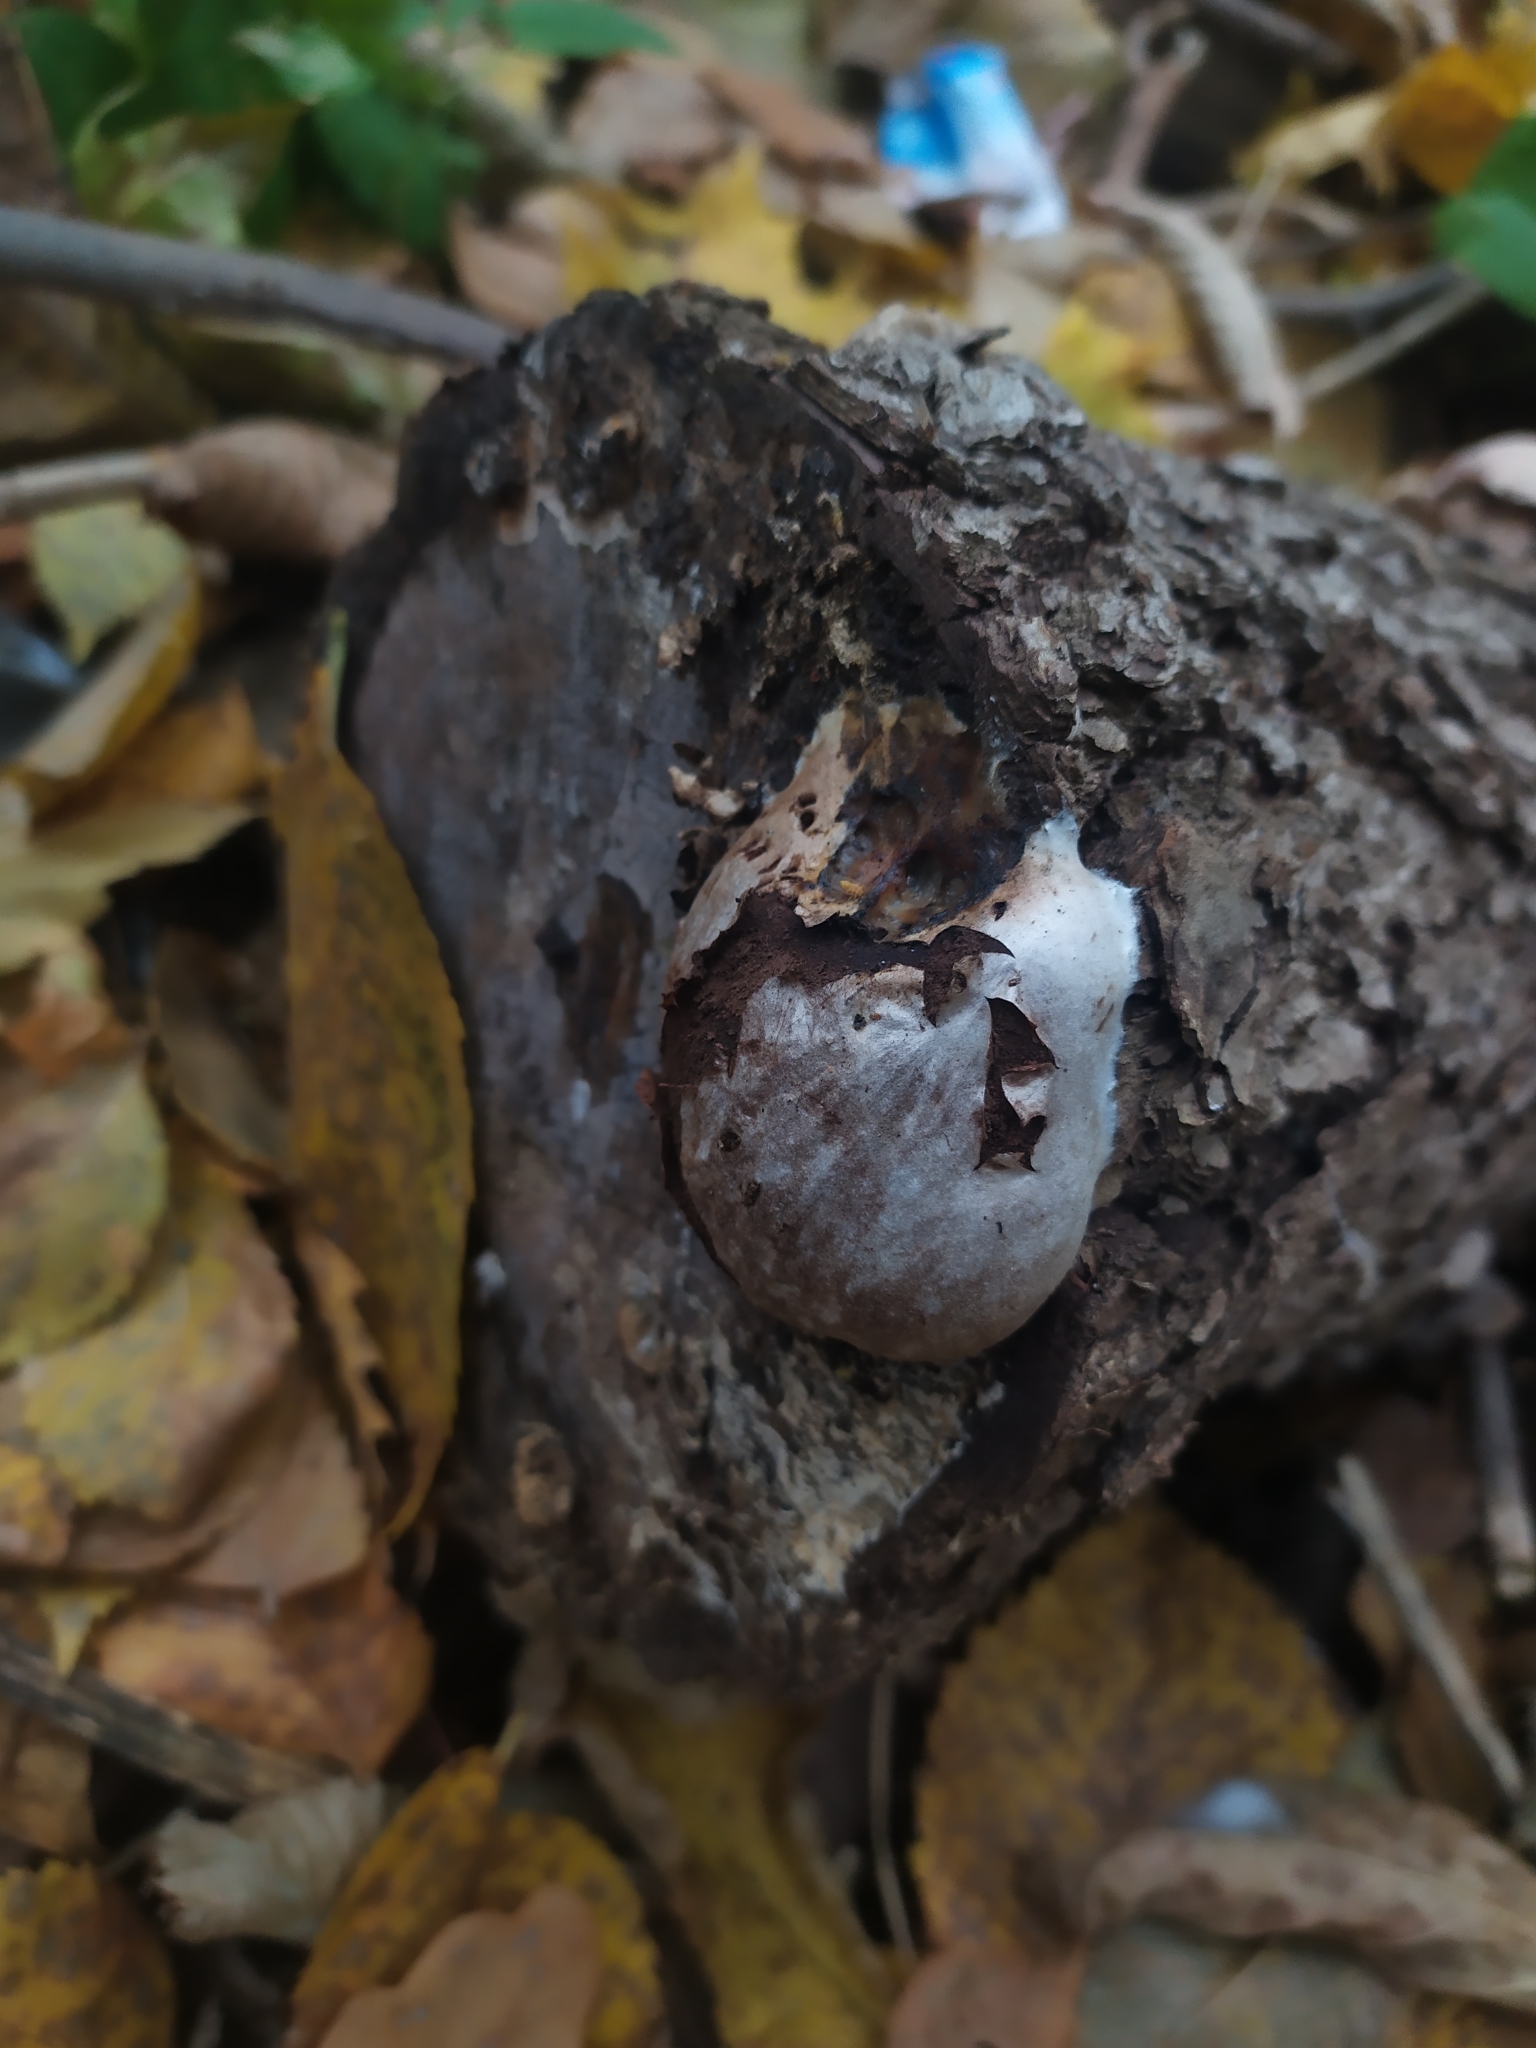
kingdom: Protozoa
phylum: Mycetozoa
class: Myxomycetes
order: Cribrariales
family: Tubiferaceae
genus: Reticularia
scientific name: Reticularia lycoperdon
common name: False puffball
